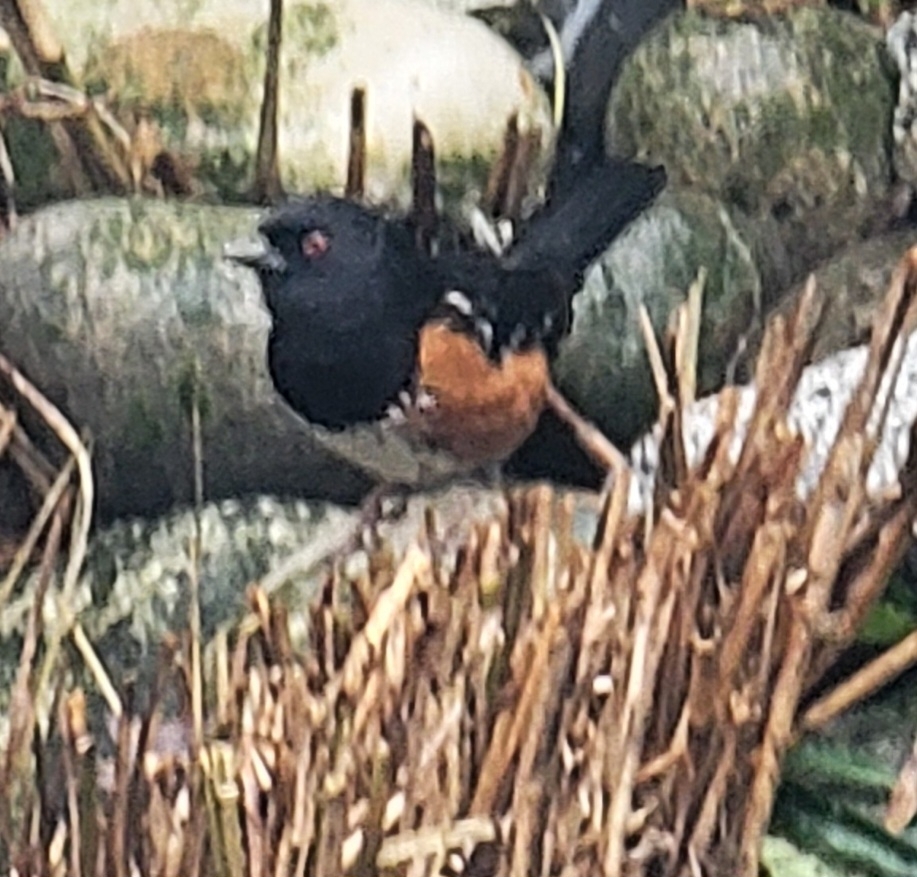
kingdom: Animalia
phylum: Chordata
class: Aves
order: Passeriformes
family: Passerellidae
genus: Pipilo
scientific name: Pipilo maculatus
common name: Spotted towhee
